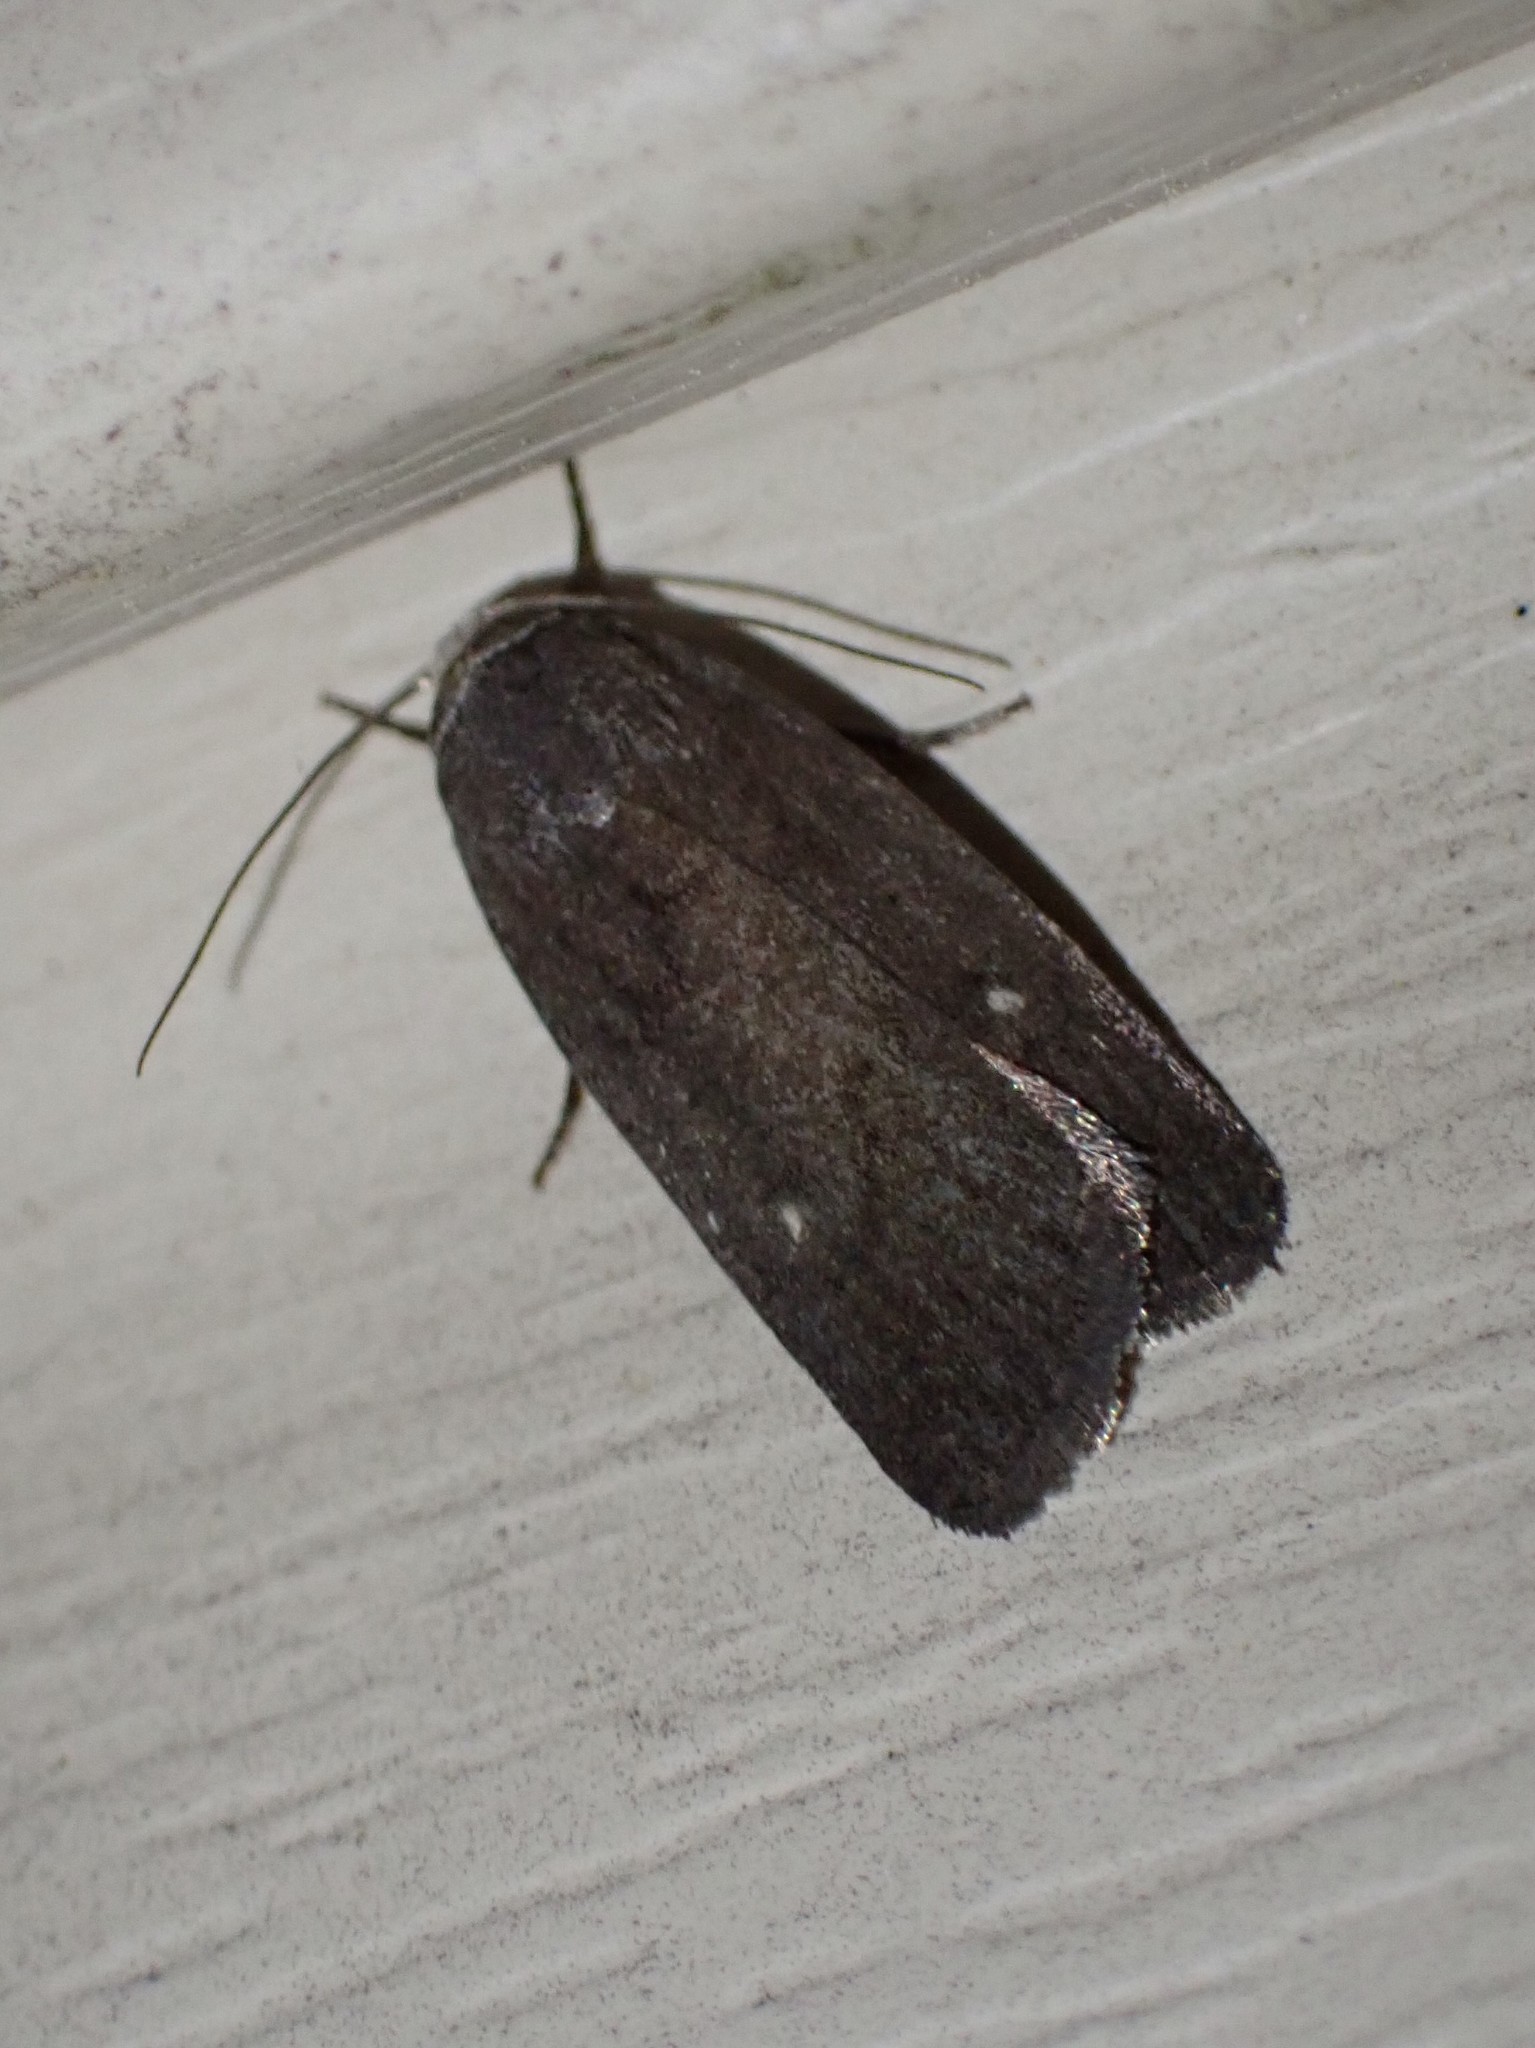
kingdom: Animalia
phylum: Arthropoda
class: Insecta
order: Lepidoptera
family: Noctuidae
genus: Proxenus
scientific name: Proxenus miranda
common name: Miranda moth
